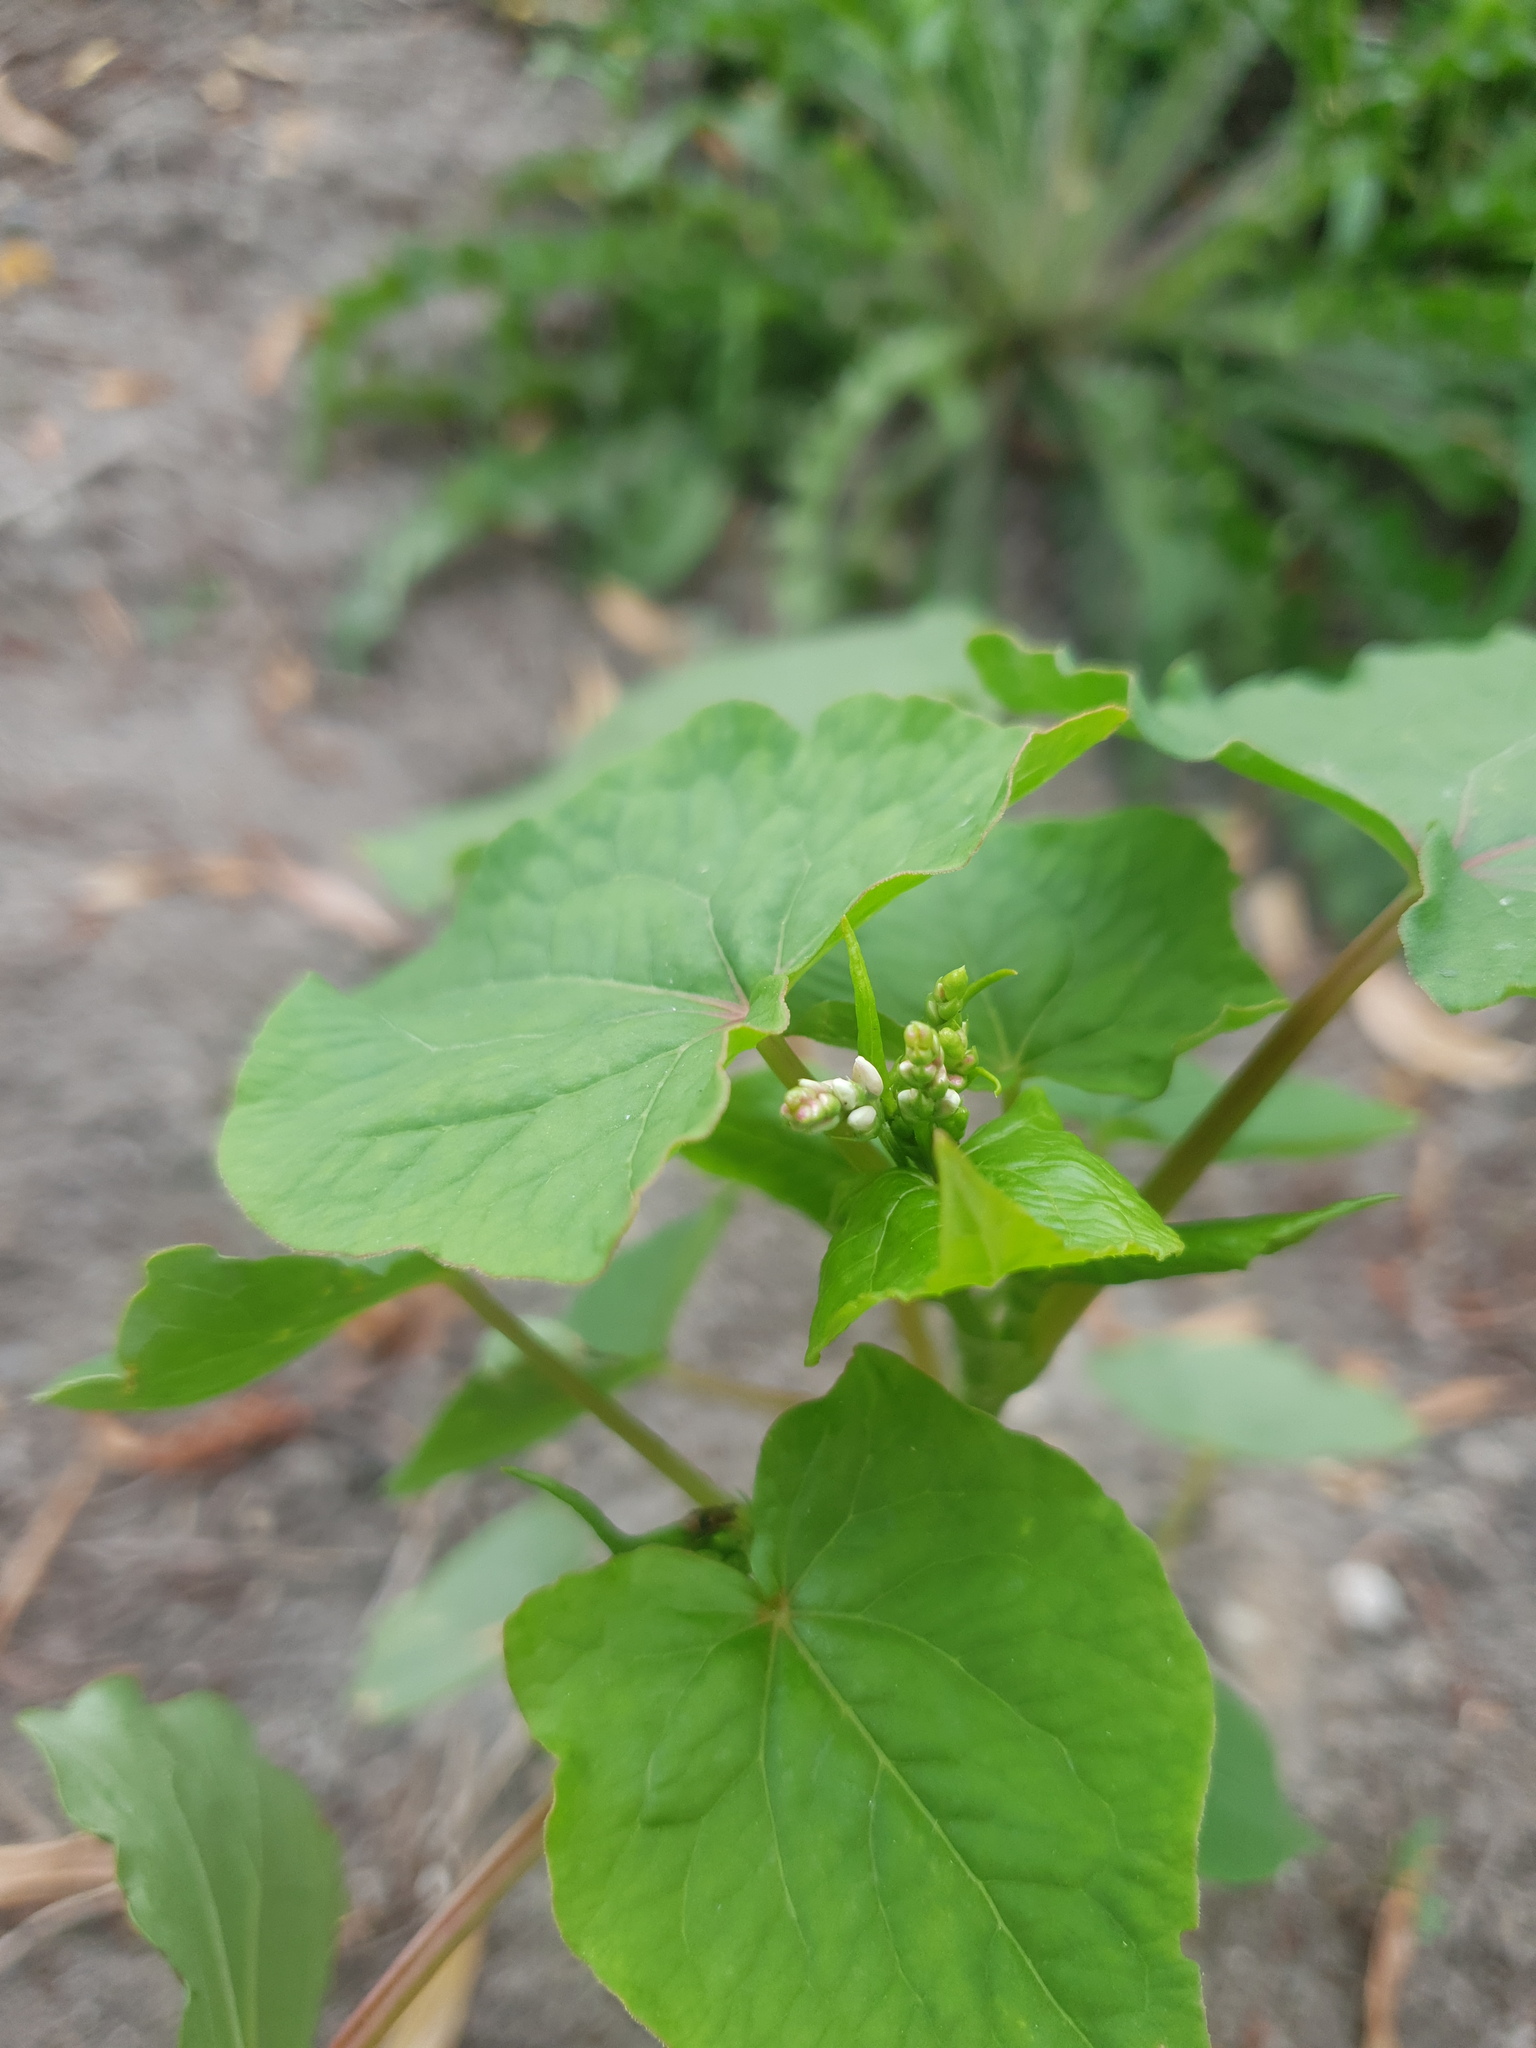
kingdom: Plantae
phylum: Tracheophyta
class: Magnoliopsida
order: Caryophyllales
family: Polygonaceae
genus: Fagopyrum
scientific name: Fagopyrum esculentum
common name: Buckwheat
